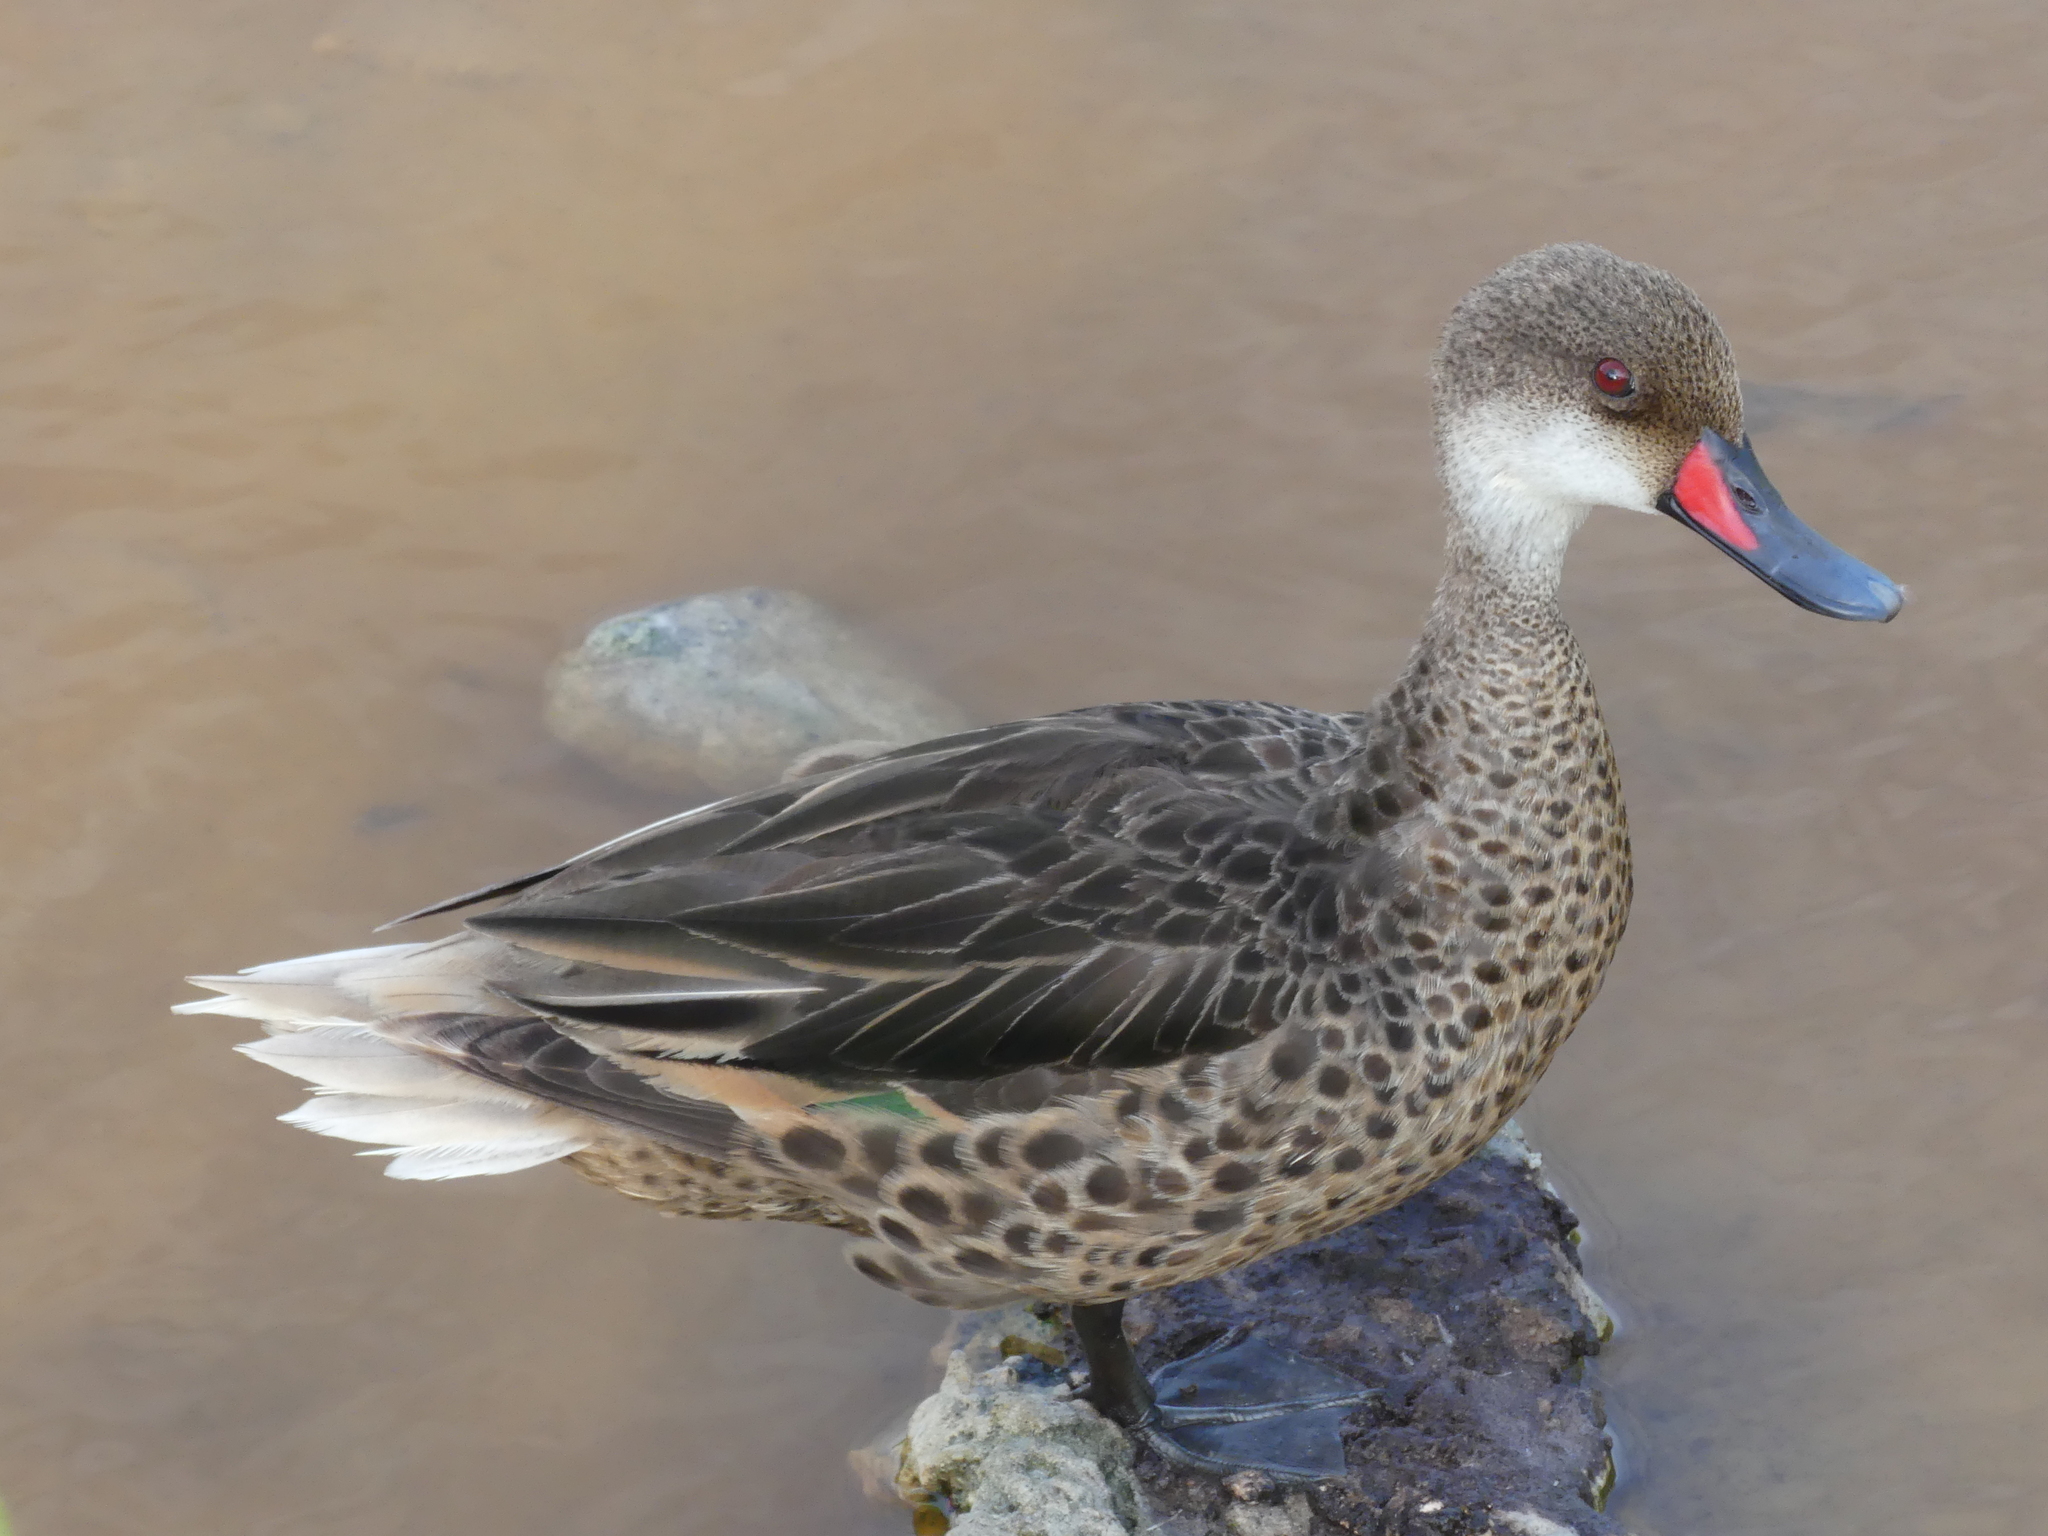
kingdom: Animalia
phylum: Chordata
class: Aves
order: Anseriformes
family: Anatidae
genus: Anas
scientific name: Anas bahamensis
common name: White-cheeked pintail
